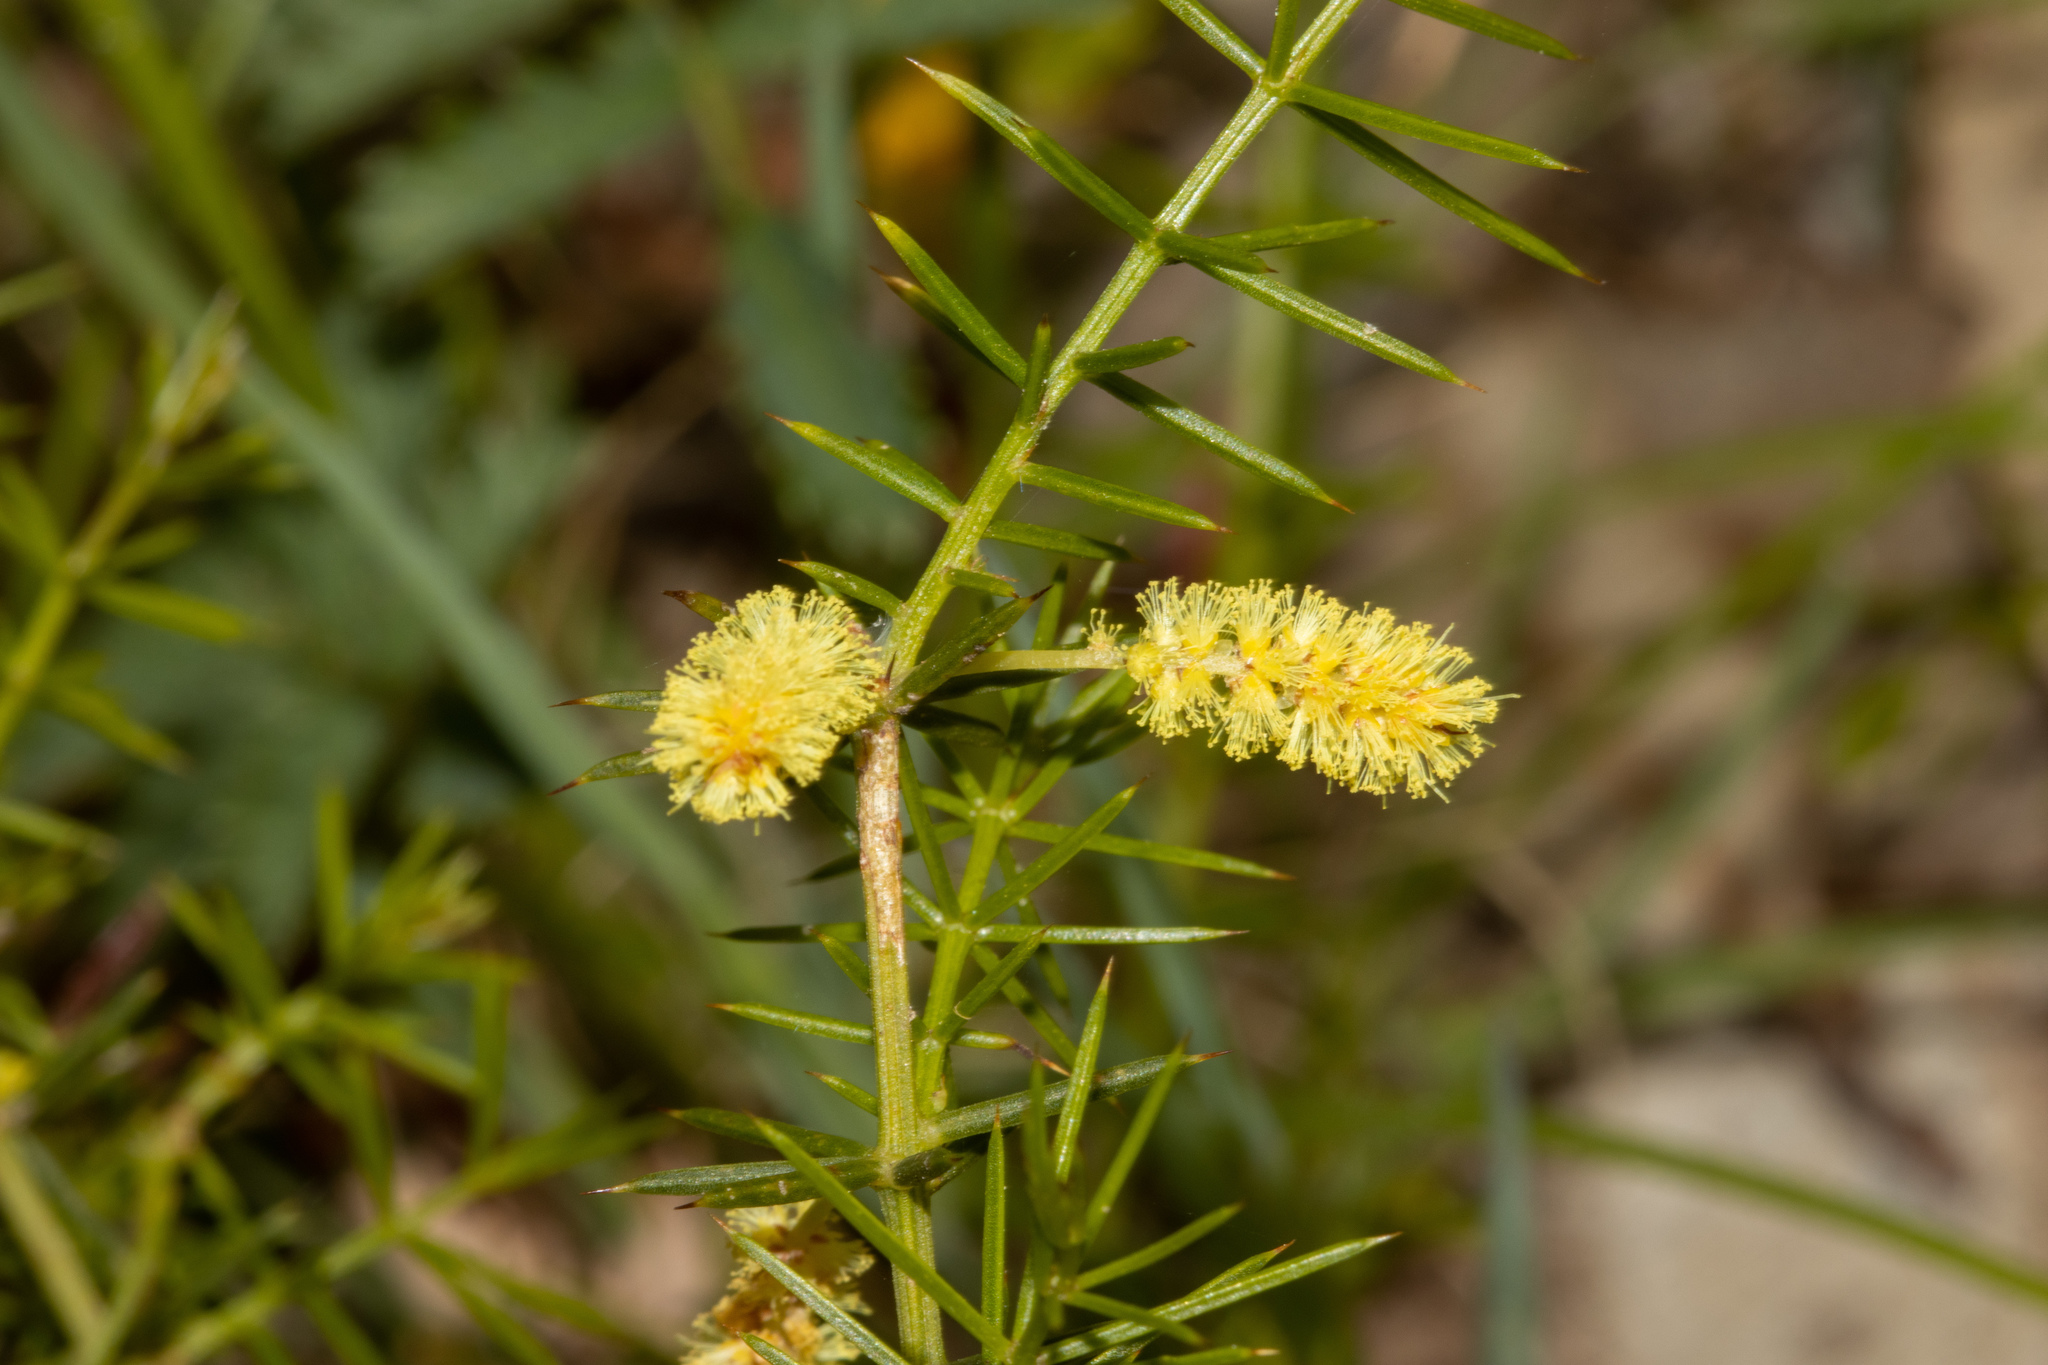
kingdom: Plantae
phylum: Tracheophyta
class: Magnoliopsida
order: Fabales
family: Fabaceae
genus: Acacia
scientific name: Acacia verticillata
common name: Prickly moses
